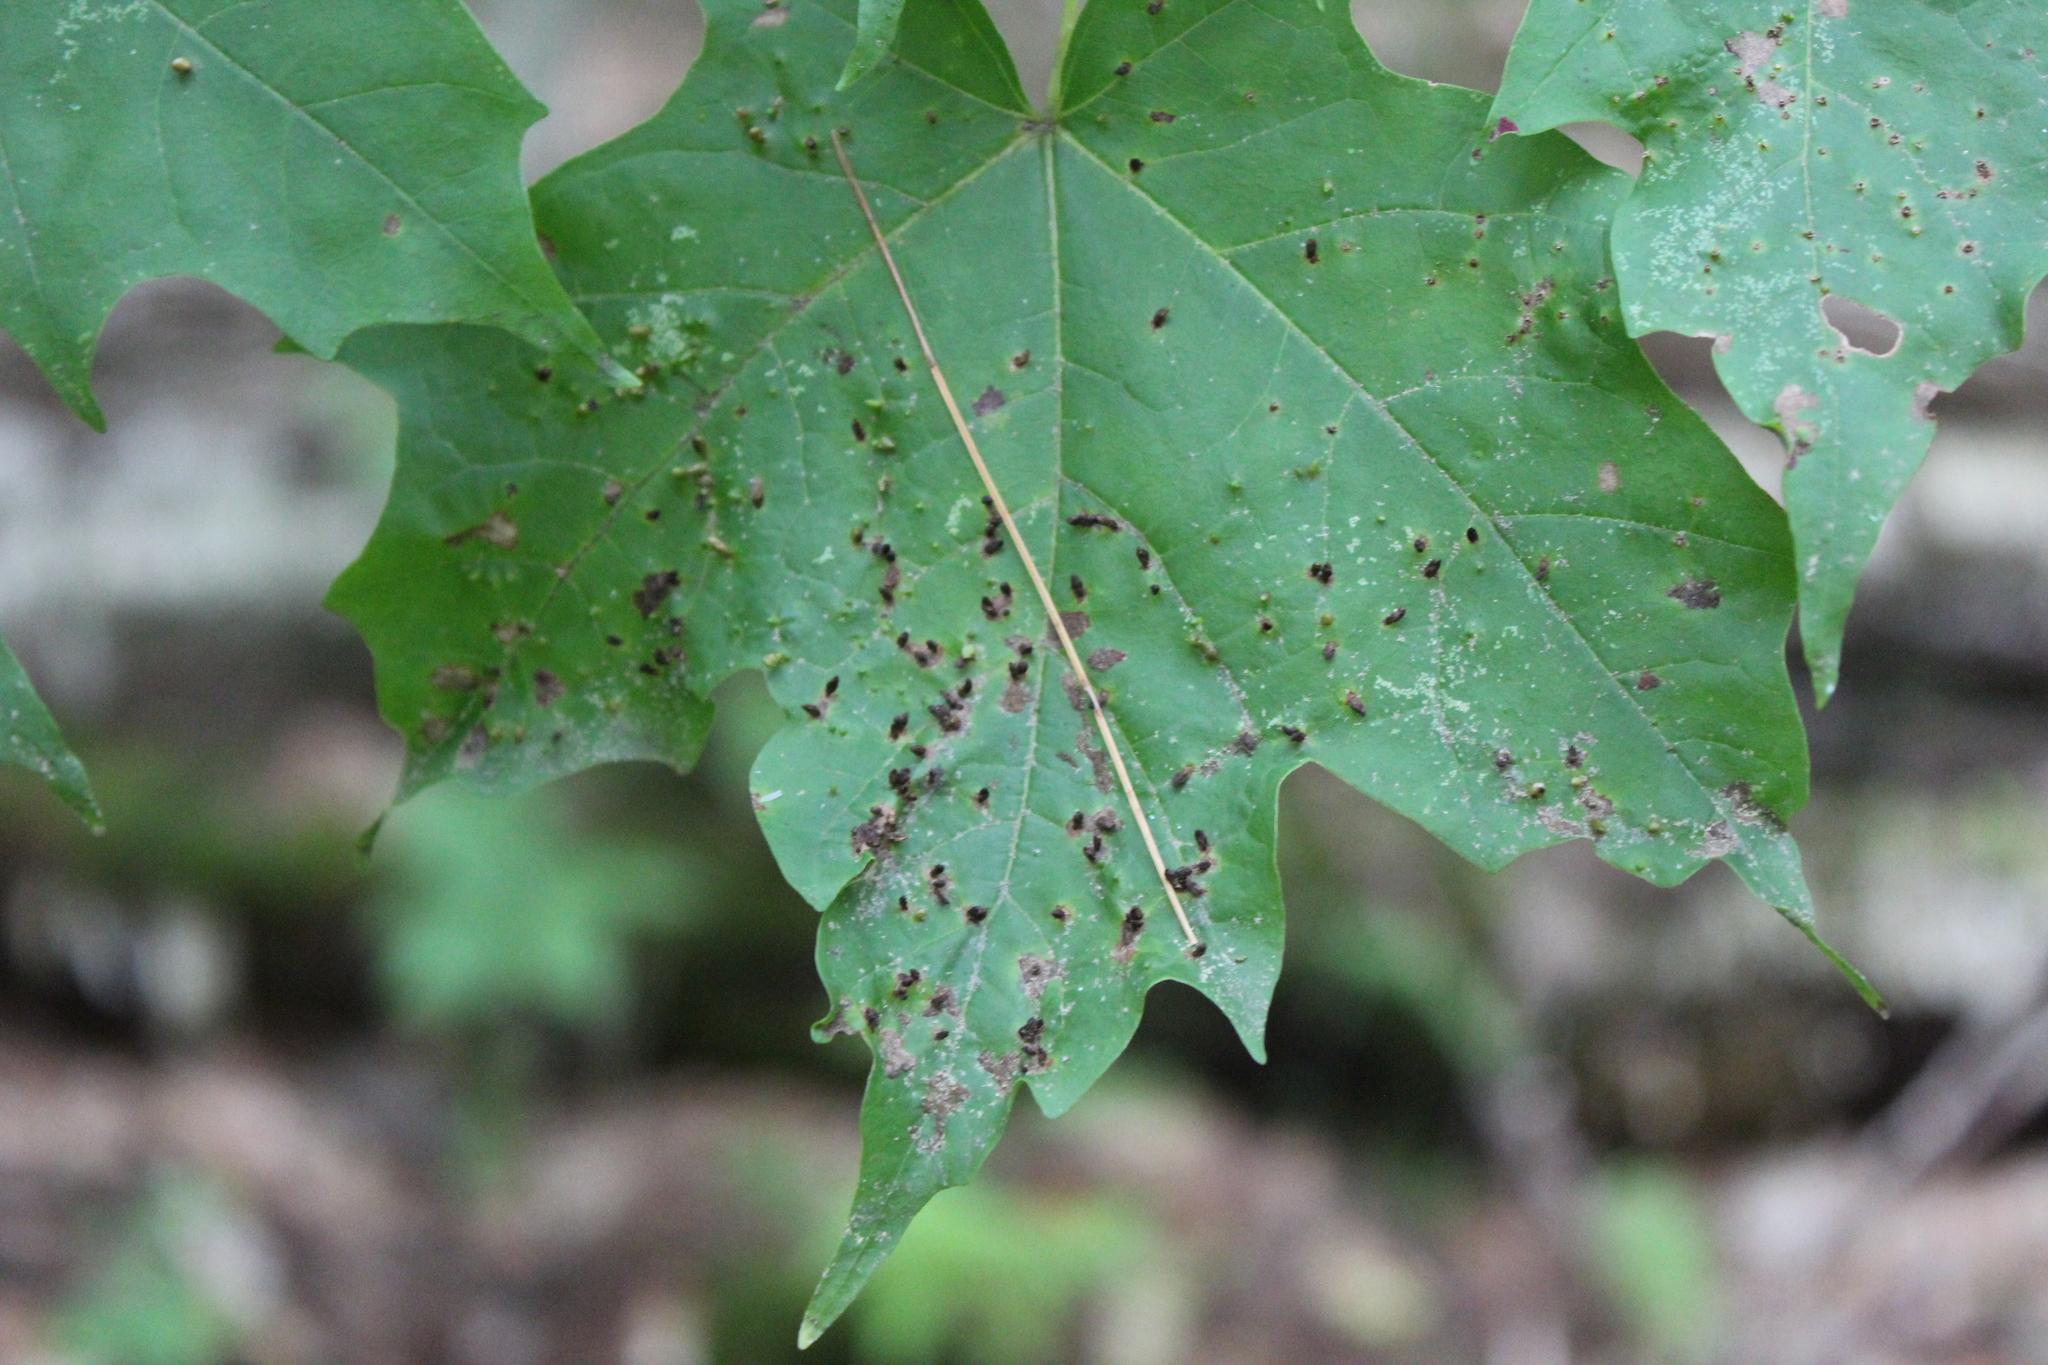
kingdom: Animalia
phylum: Arthropoda
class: Arachnida
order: Trombidiformes
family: Eriophyidae
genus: Vasates
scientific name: Vasates aceriscrumena
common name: Maple spindle gall mite
